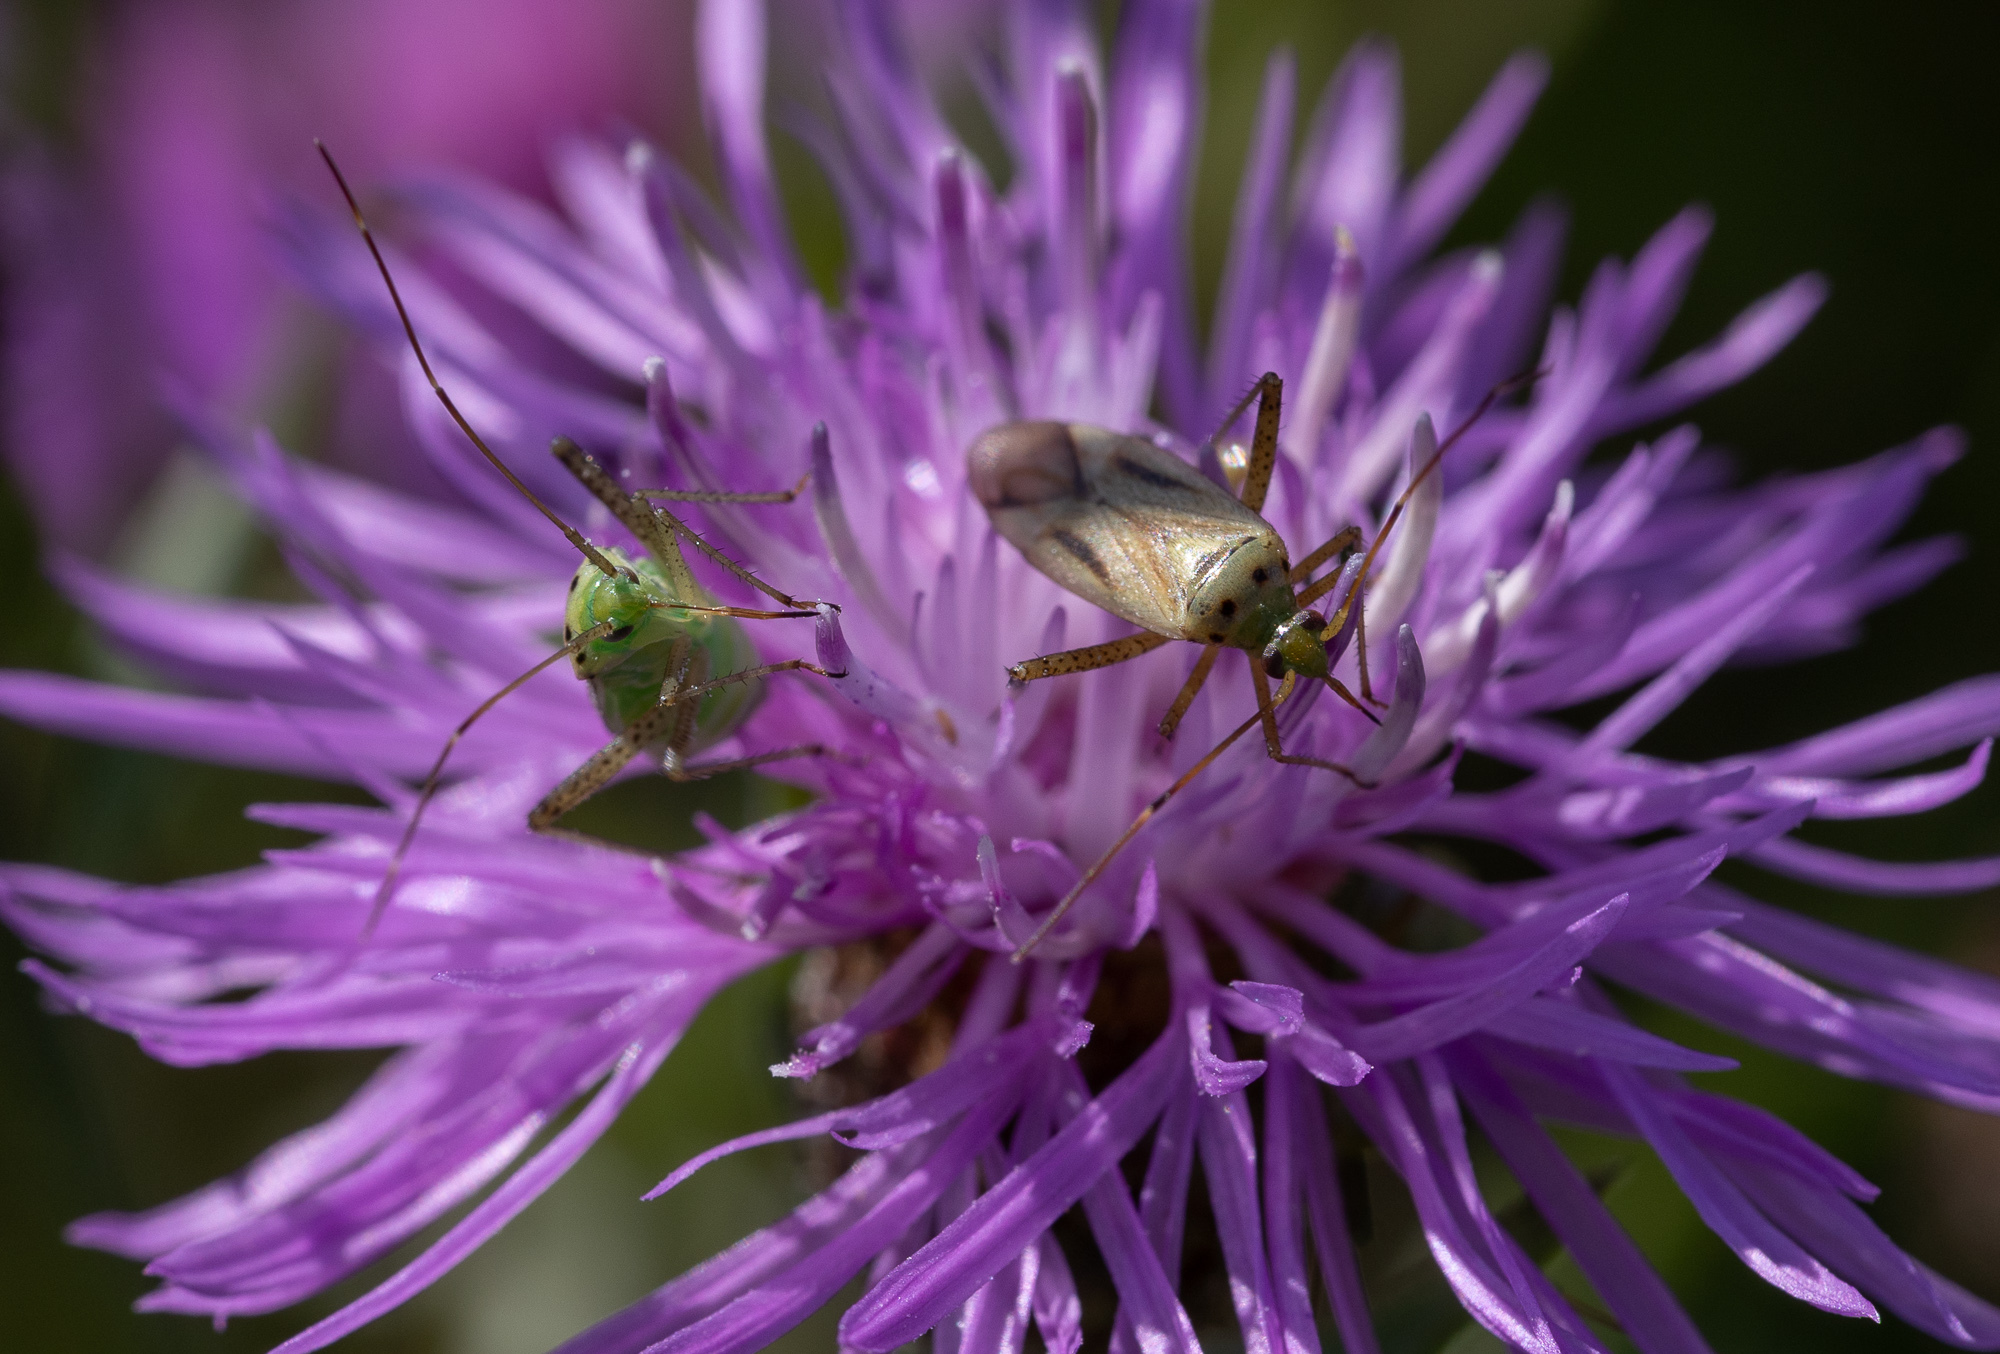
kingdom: Animalia
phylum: Arthropoda
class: Insecta
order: Hemiptera
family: Miridae
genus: Adelphocoris
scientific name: Adelphocoris quadripunctatus
